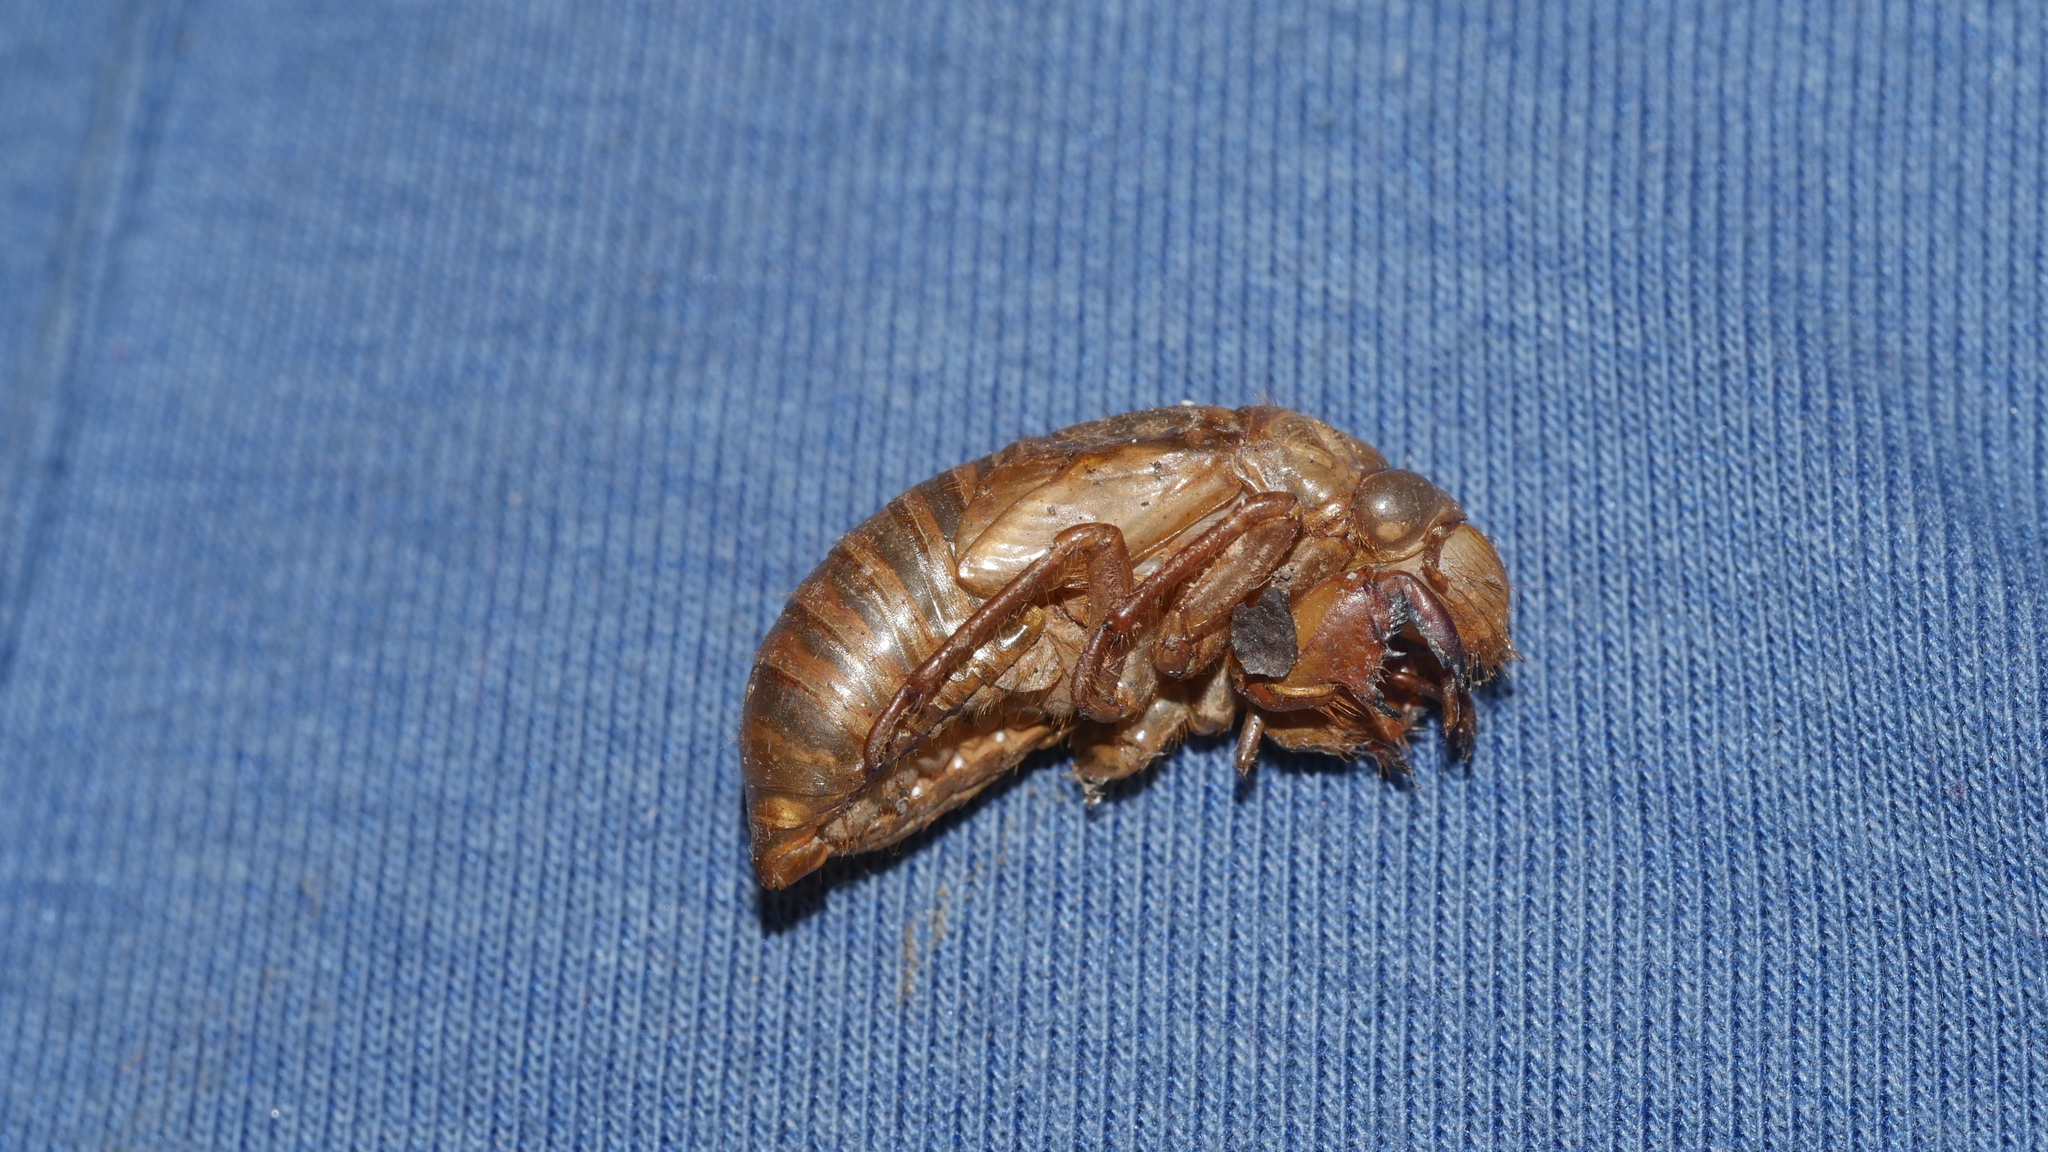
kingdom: Animalia
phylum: Arthropoda
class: Insecta
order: Hemiptera
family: Cicadidae
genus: Magicicada
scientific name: Magicicada
